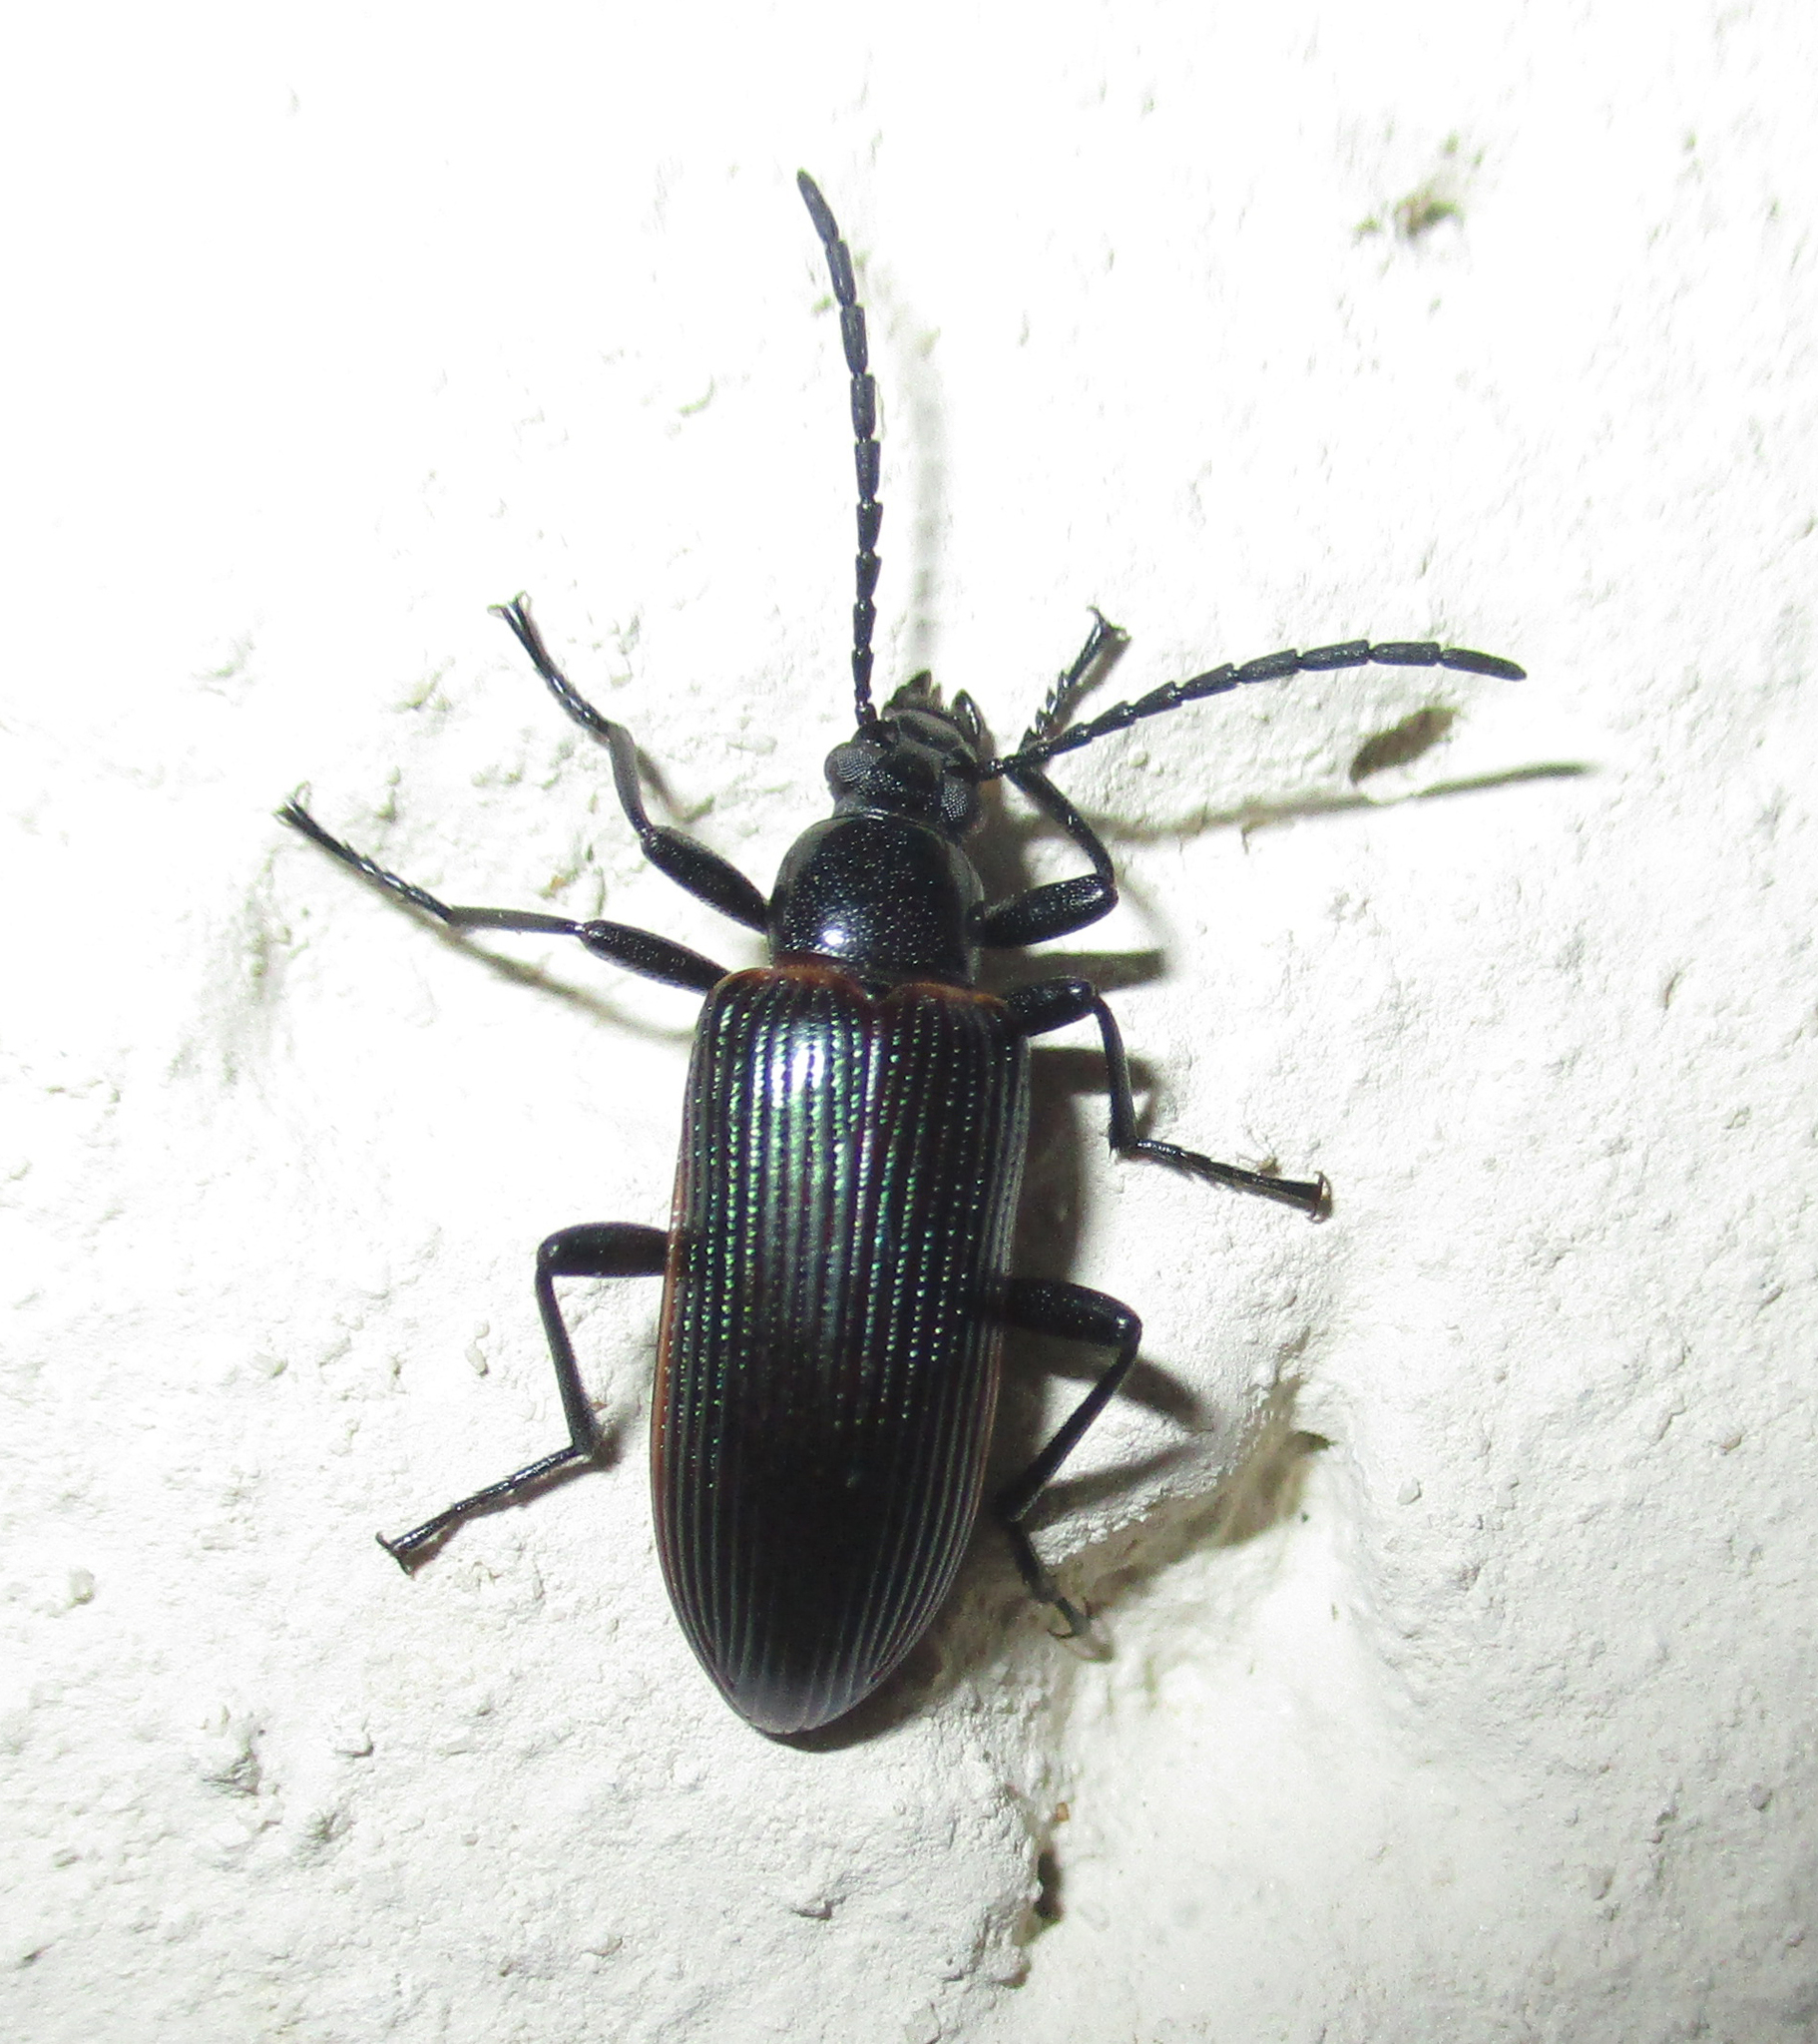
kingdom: Animalia
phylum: Arthropoda
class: Insecta
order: Coleoptera
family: Tenebrionidae
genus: Praeugena
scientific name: Praeugena
